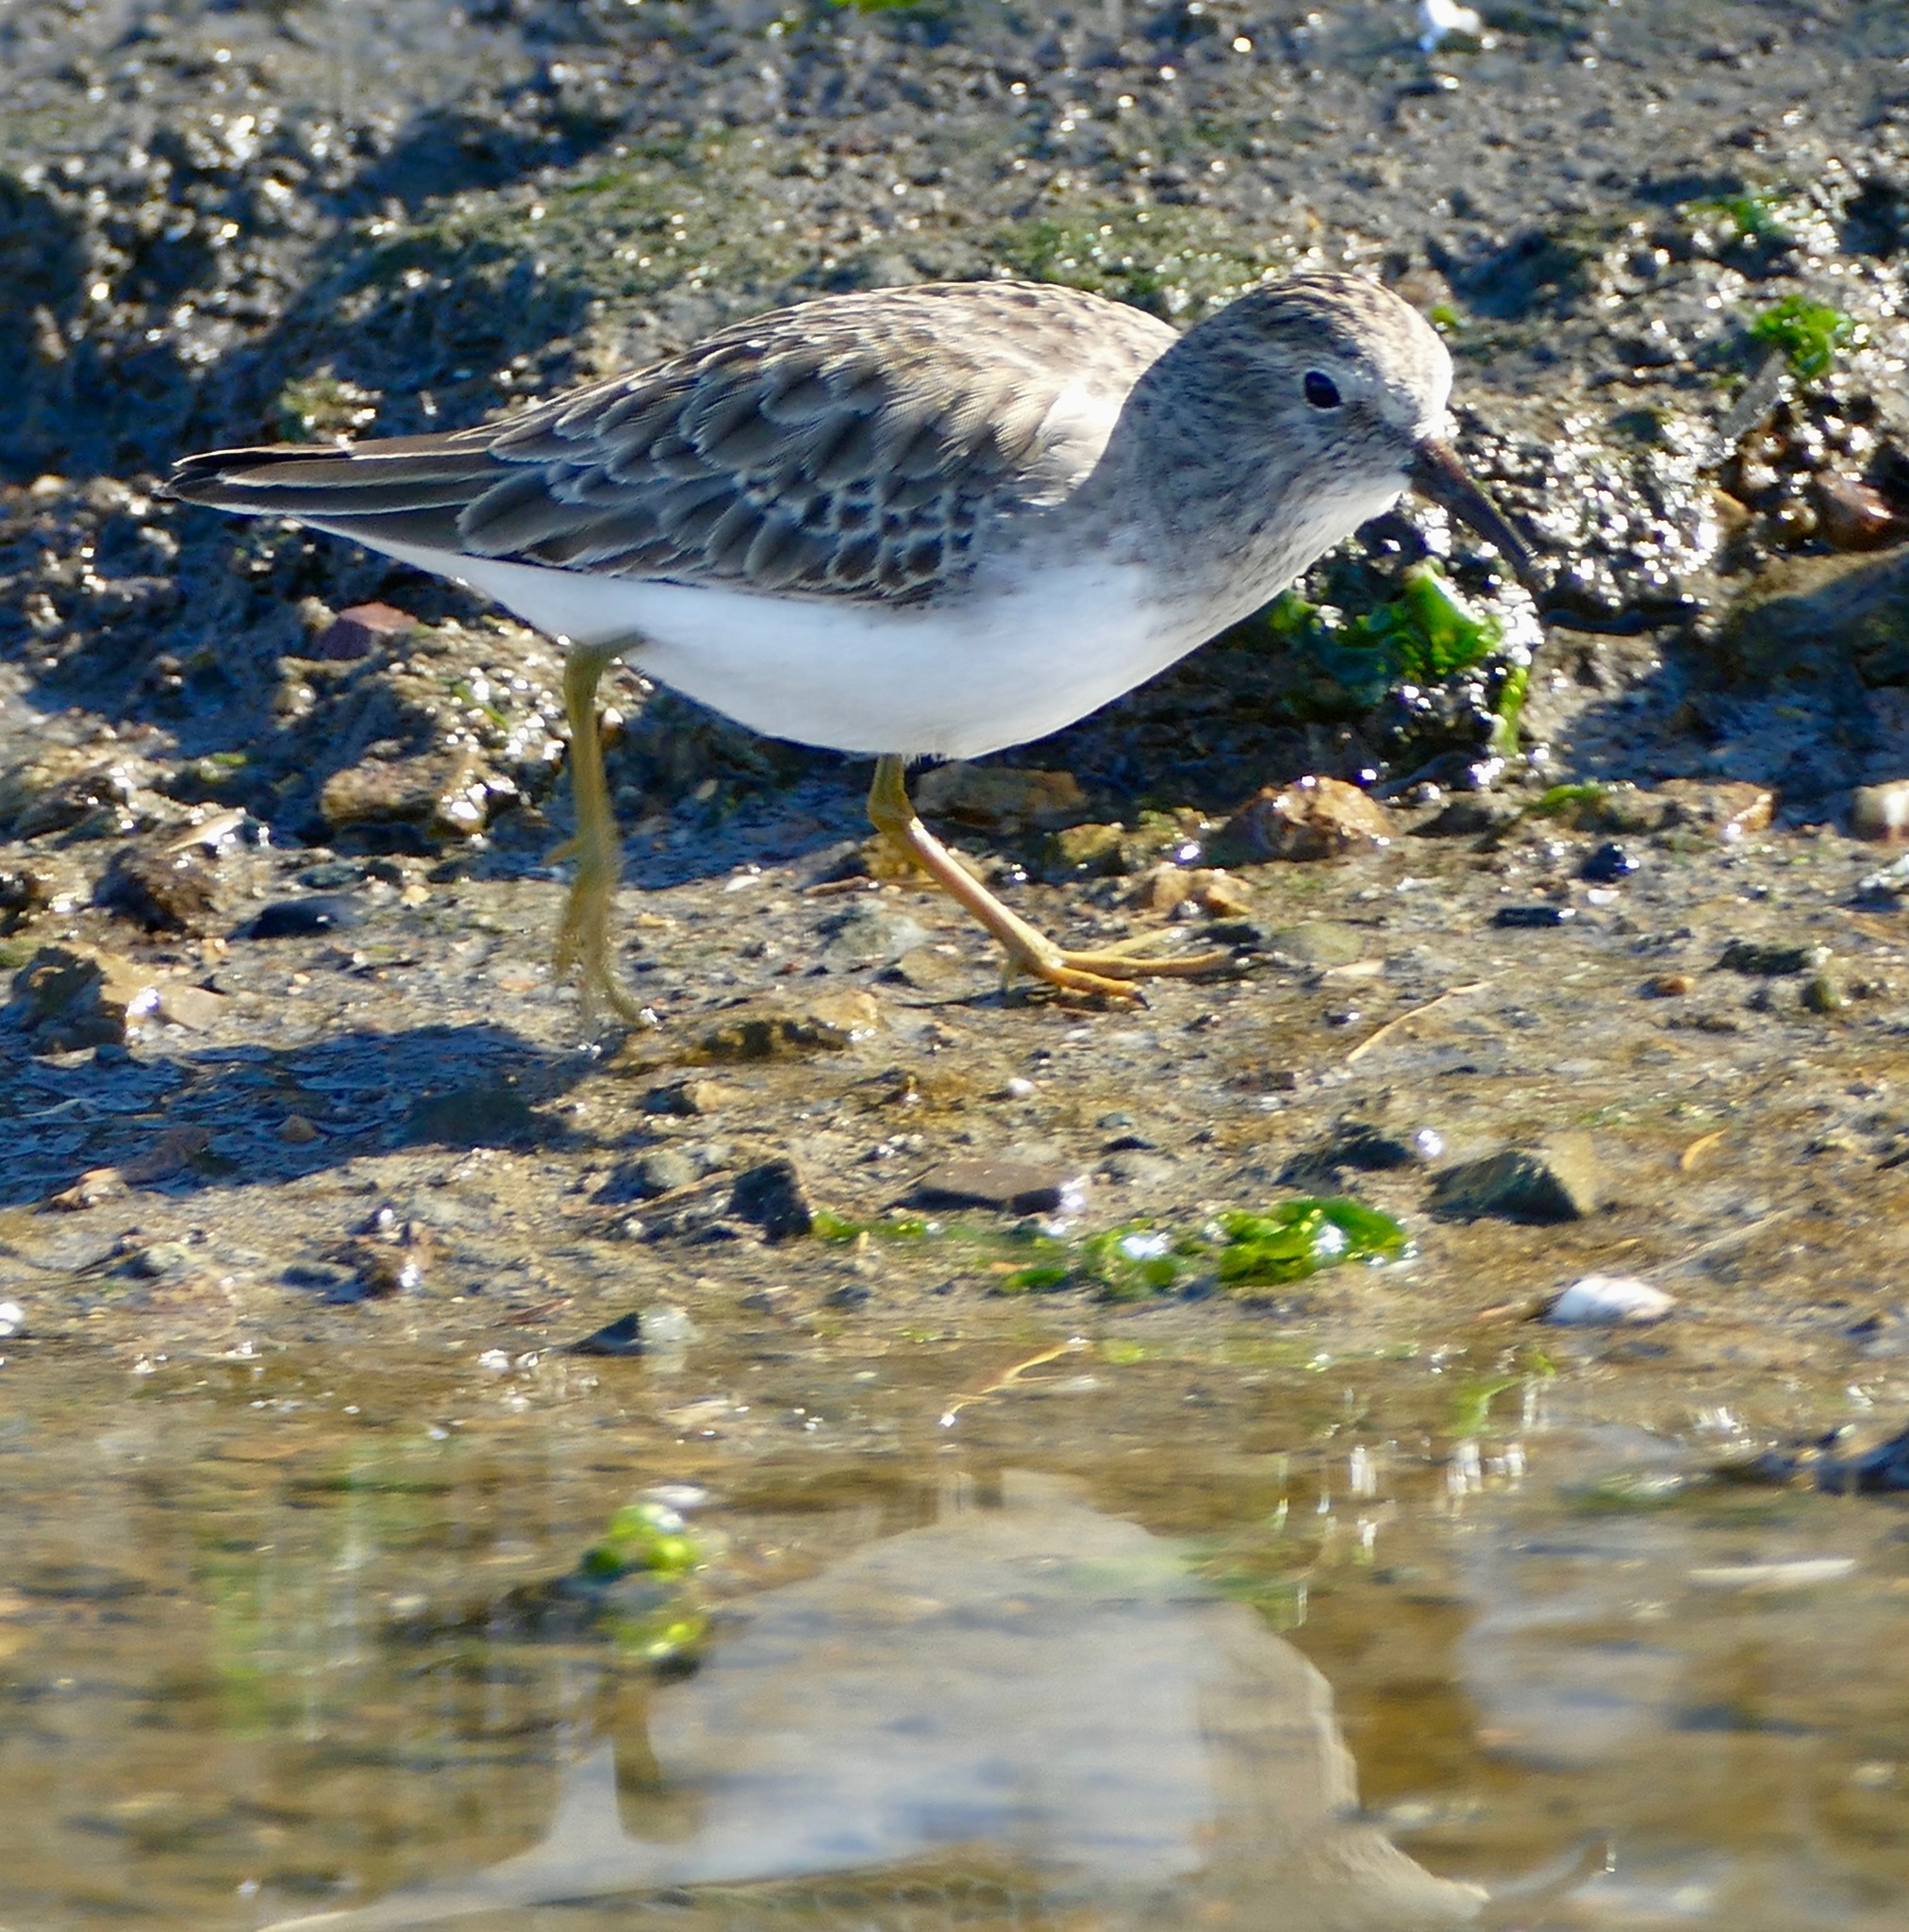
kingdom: Animalia
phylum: Chordata
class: Aves
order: Charadriiformes
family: Scolopacidae
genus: Calidris
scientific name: Calidris minutilla
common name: Least sandpiper
